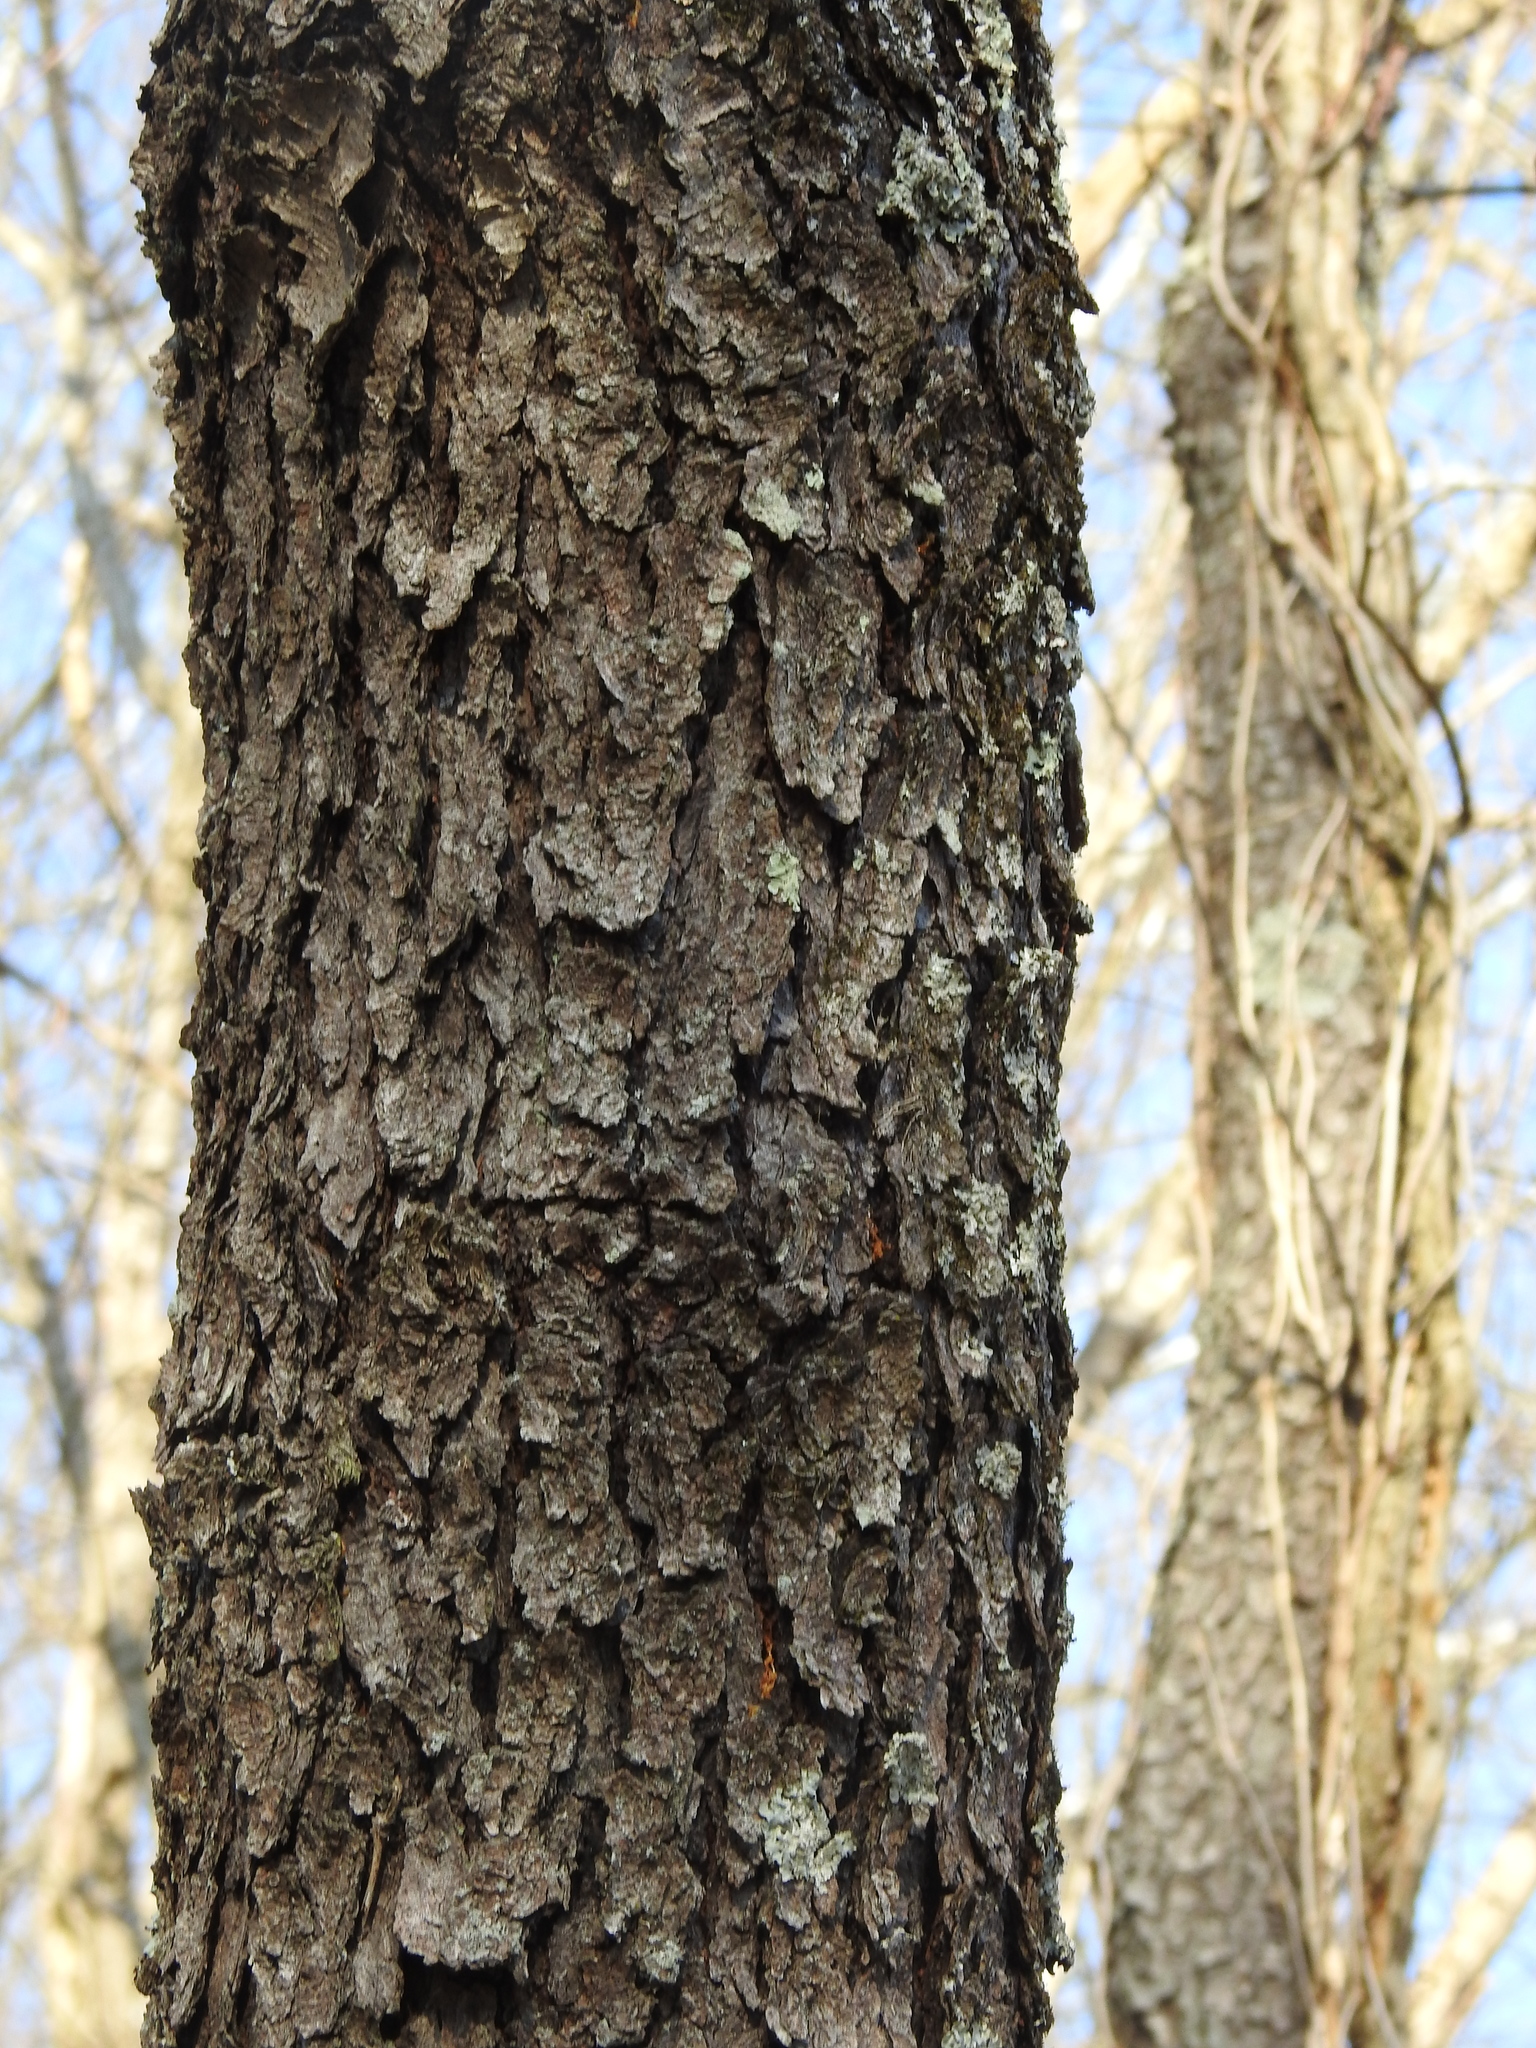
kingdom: Plantae
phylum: Tracheophyta
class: Magnoliopsida
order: Rosales
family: Rosaceae
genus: Prunus
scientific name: Prunus serotina
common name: Black cherry
